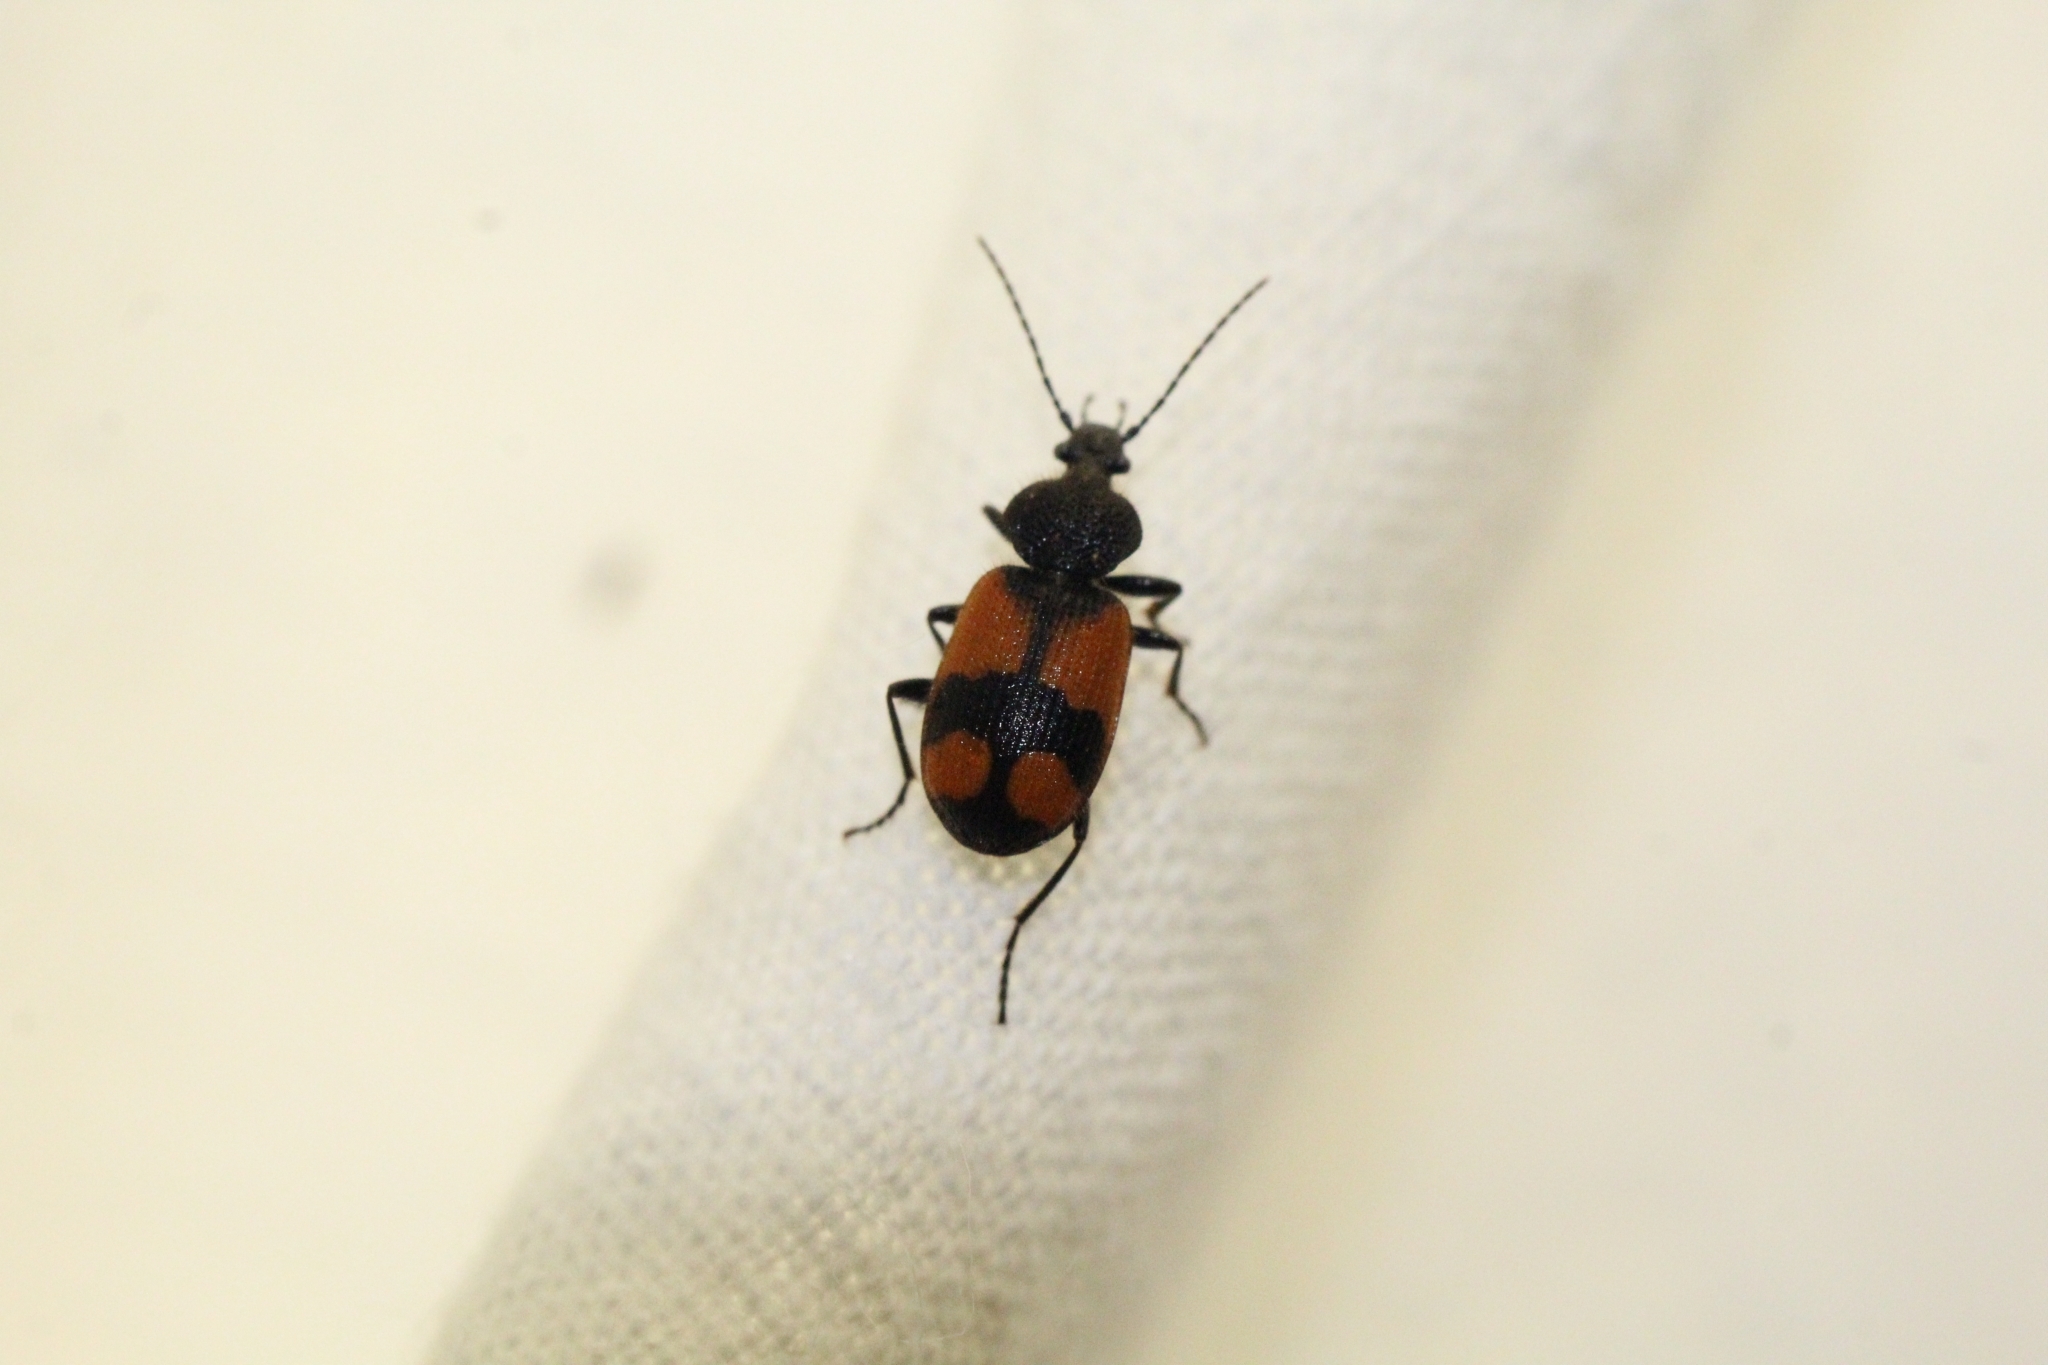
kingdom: Animalia
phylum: Arthropoda
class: Insecta
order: Coleoptera
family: Carabidae
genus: Panagaeus
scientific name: Panagaeus cruxmajor
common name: Crucifix ground beetle
